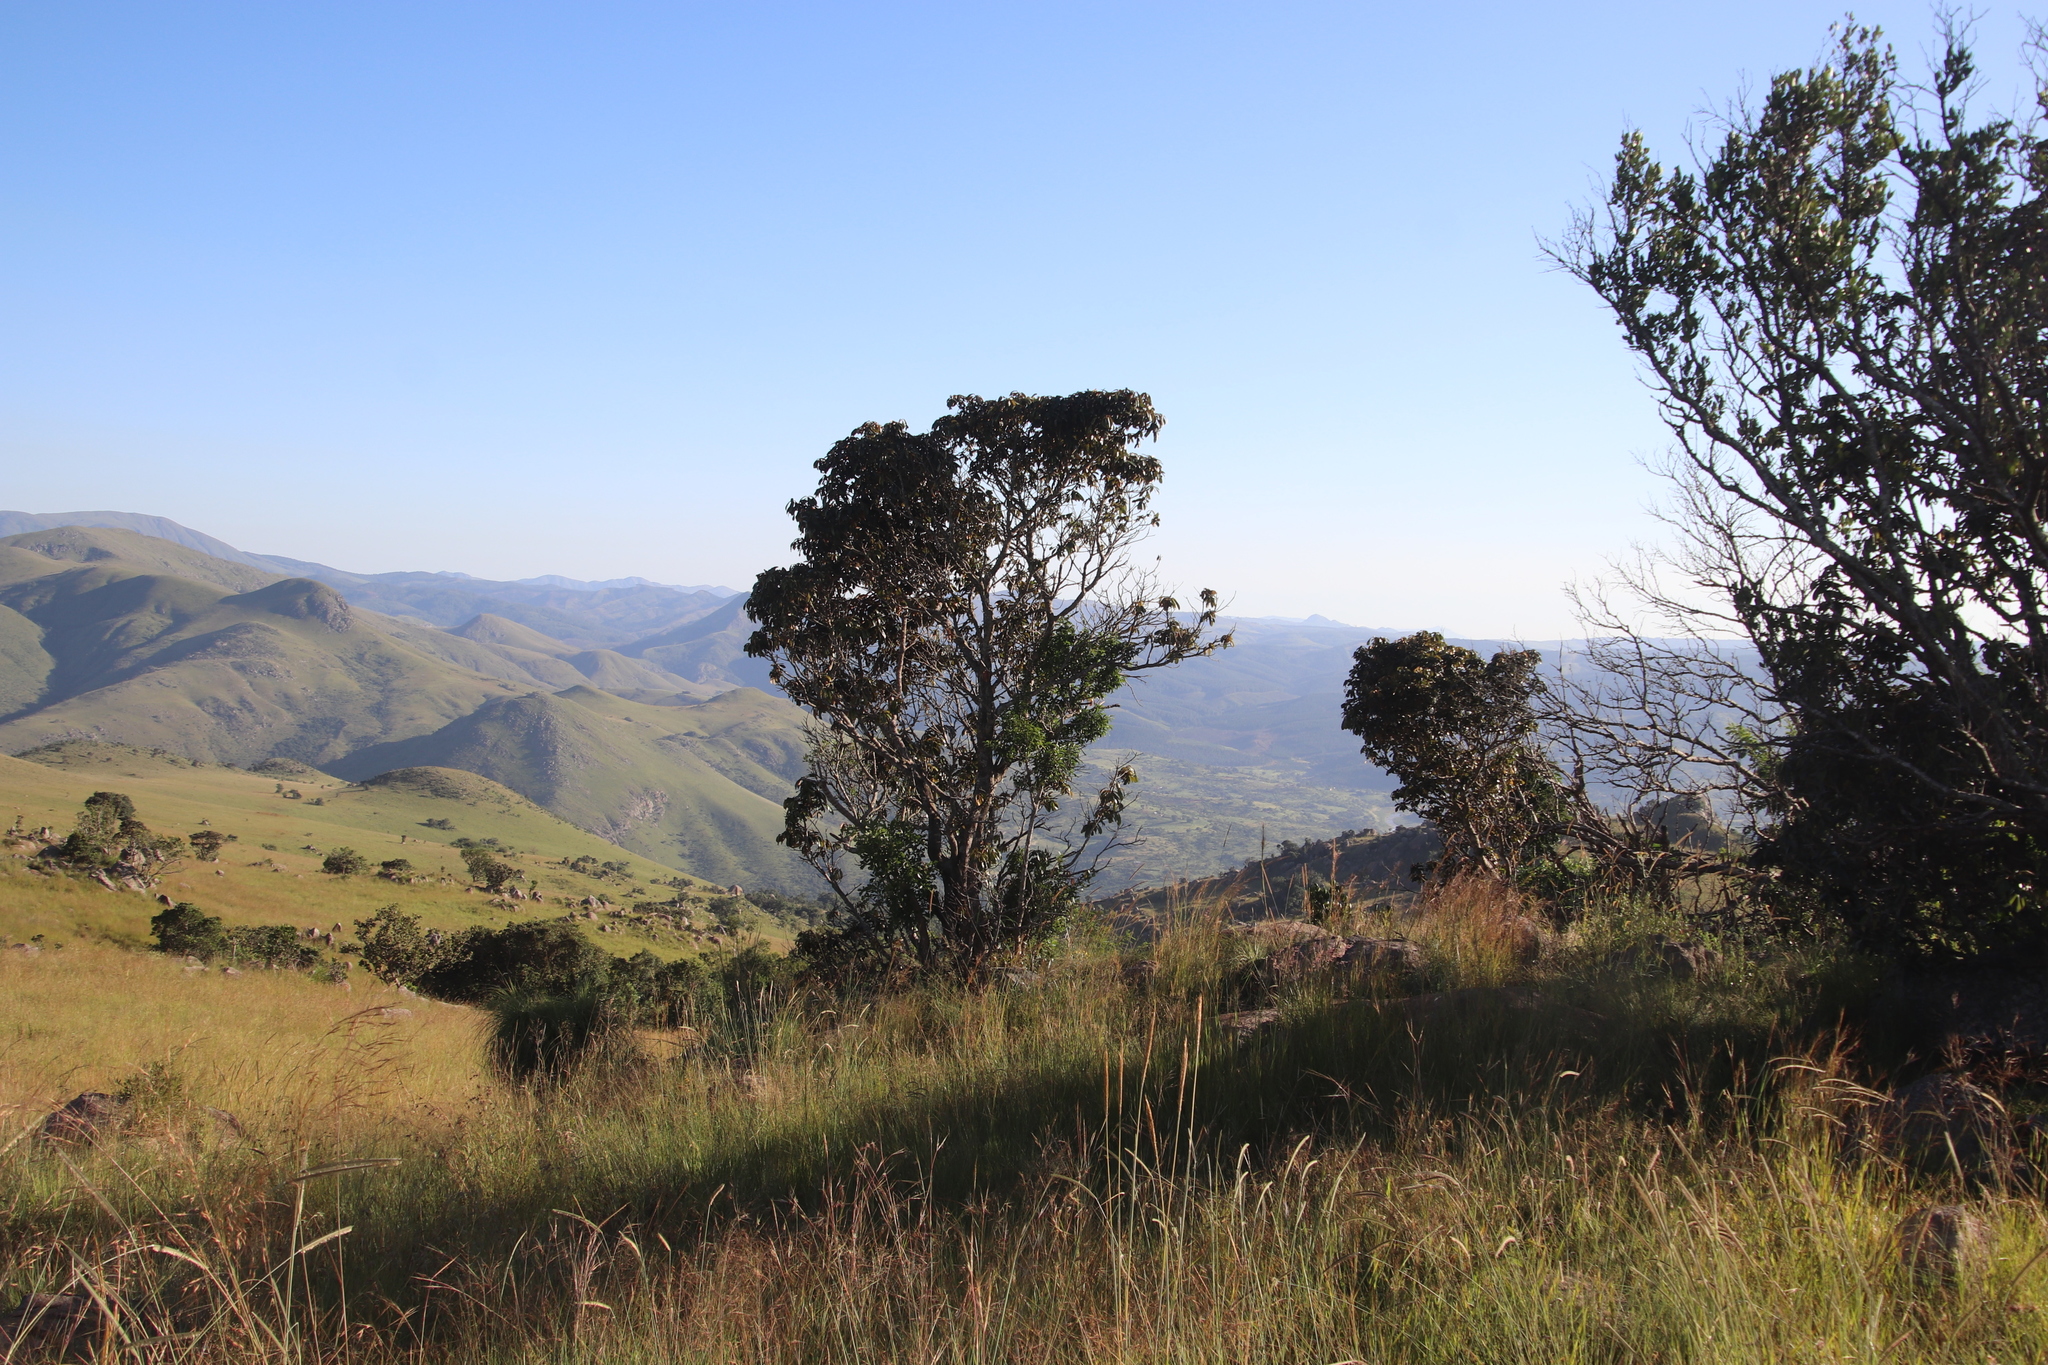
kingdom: Plantae
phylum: Tracheophyta
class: Magnoliopsida
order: Ericales
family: Sapotaceae
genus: Englerophytum
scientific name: Englerophytum magalismontanum
